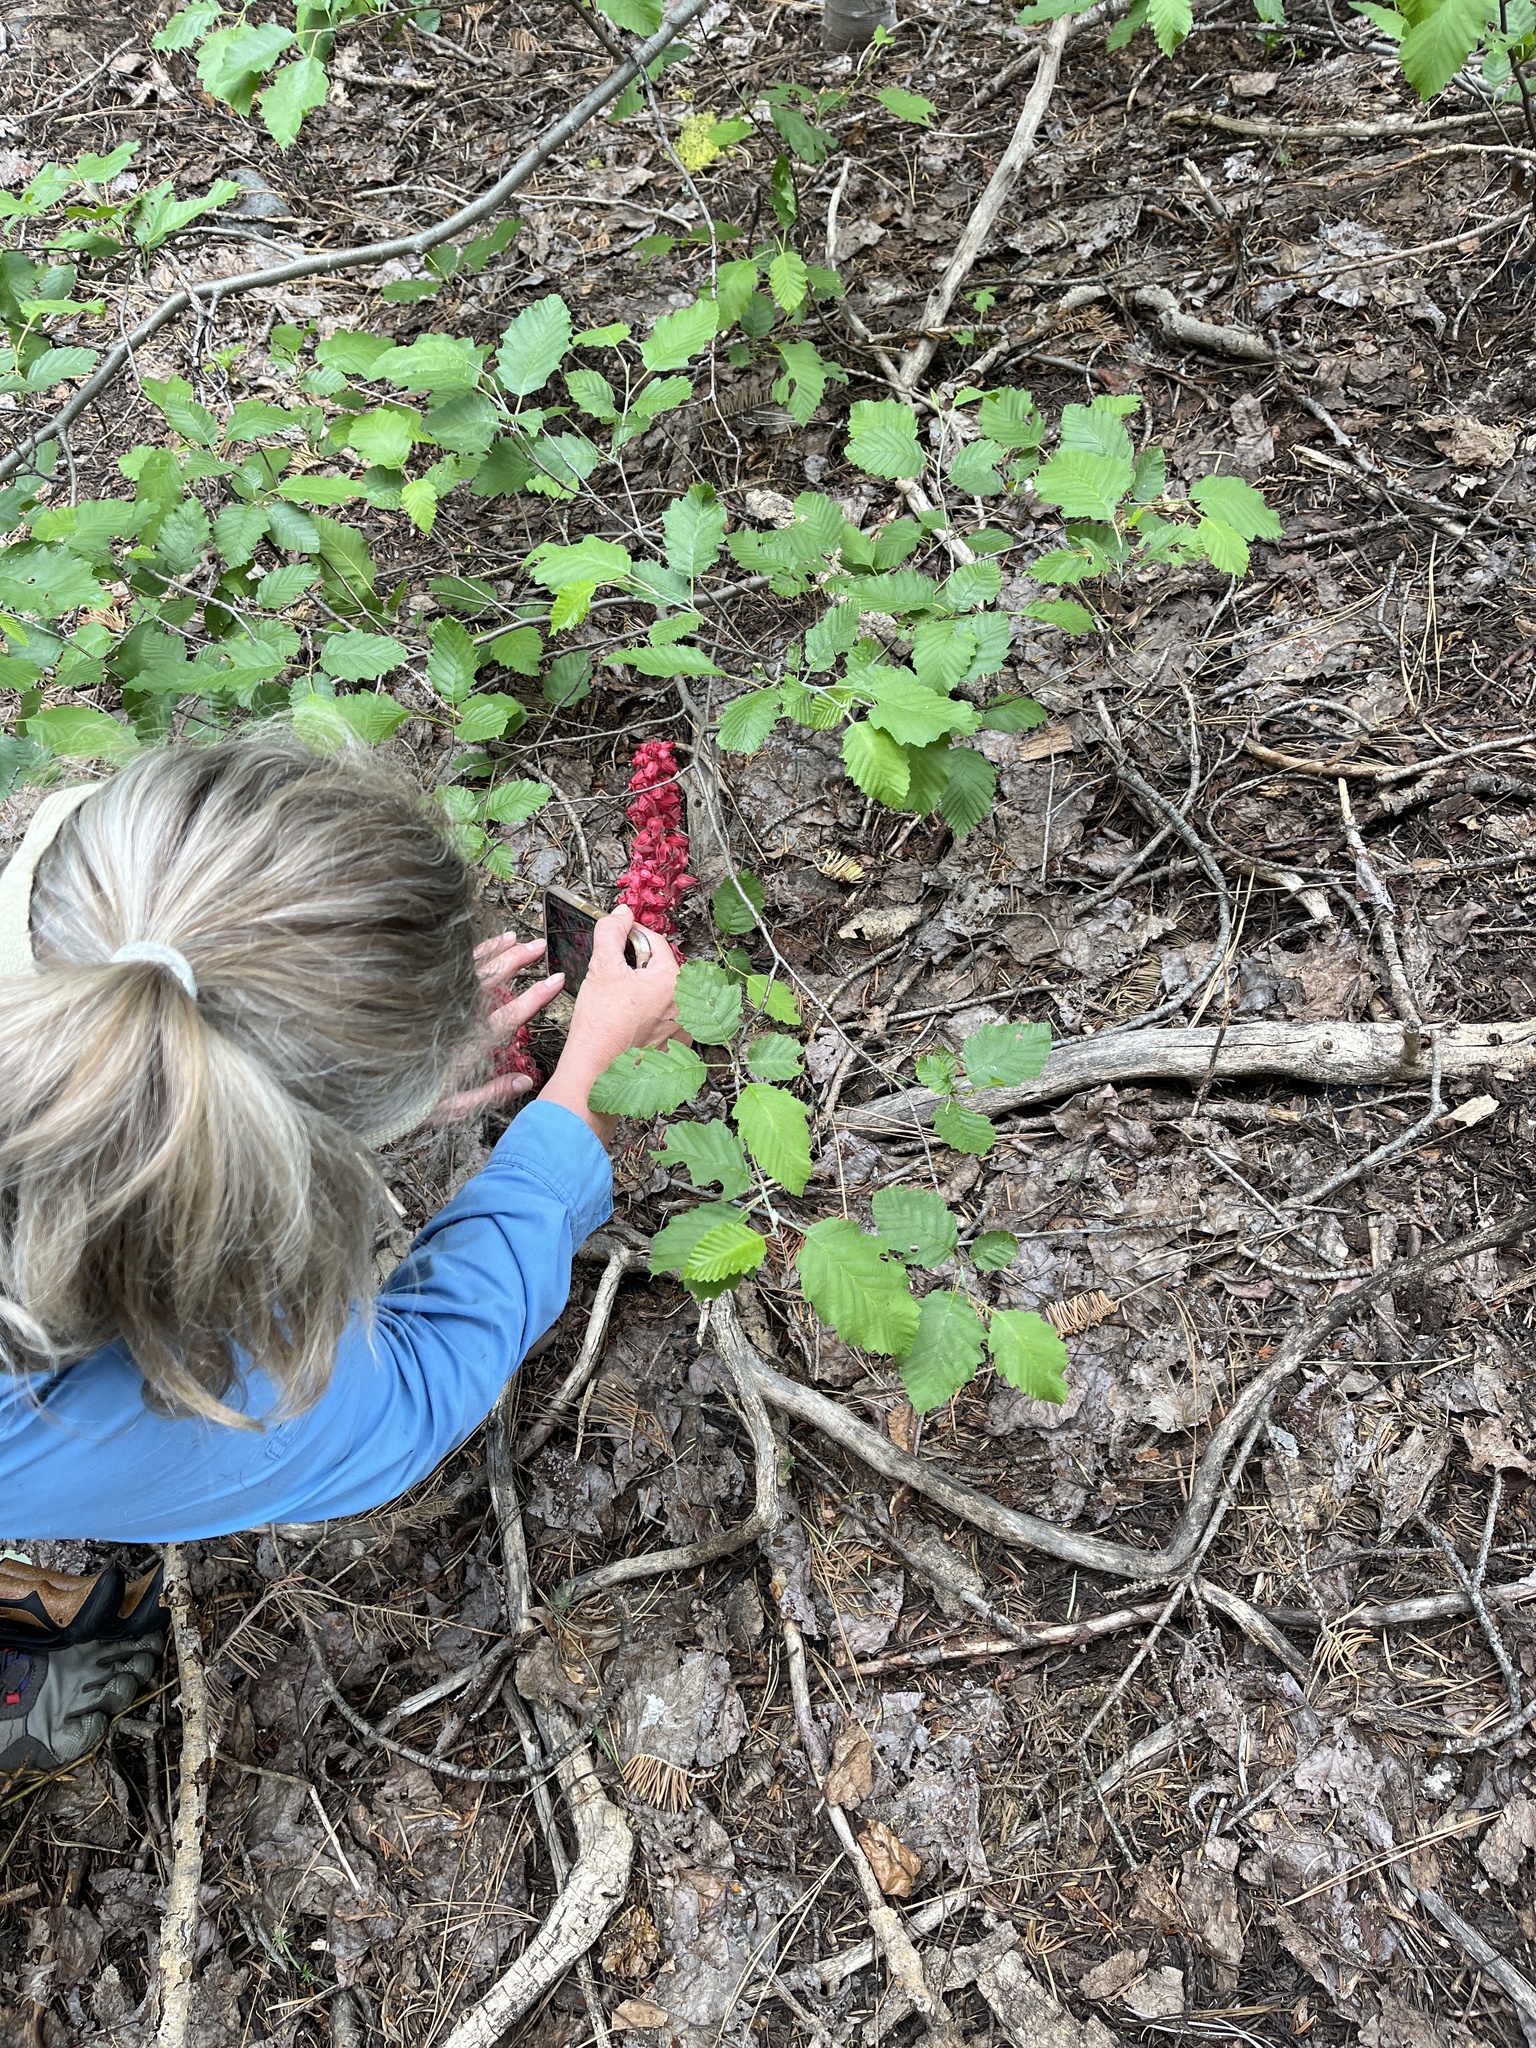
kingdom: Plantae
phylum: Tracheophyta
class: Magnoliopsida
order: Ericales
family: Ericaceae
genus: Sarcodes
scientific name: Sarcodes sanguinea
